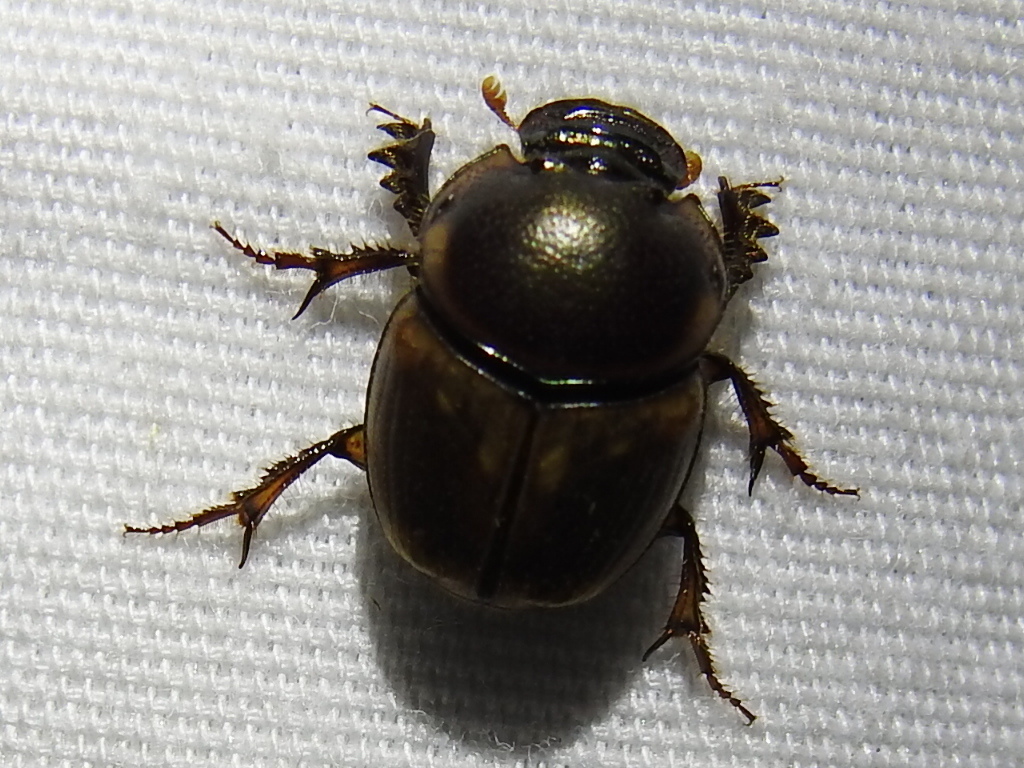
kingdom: Animalia
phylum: Arthropoda
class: Insecta
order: Coleoptera
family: Scarabaeidae
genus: Digitonthophagus
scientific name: Digitonthophagus gazella
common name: Brown dung beetle
